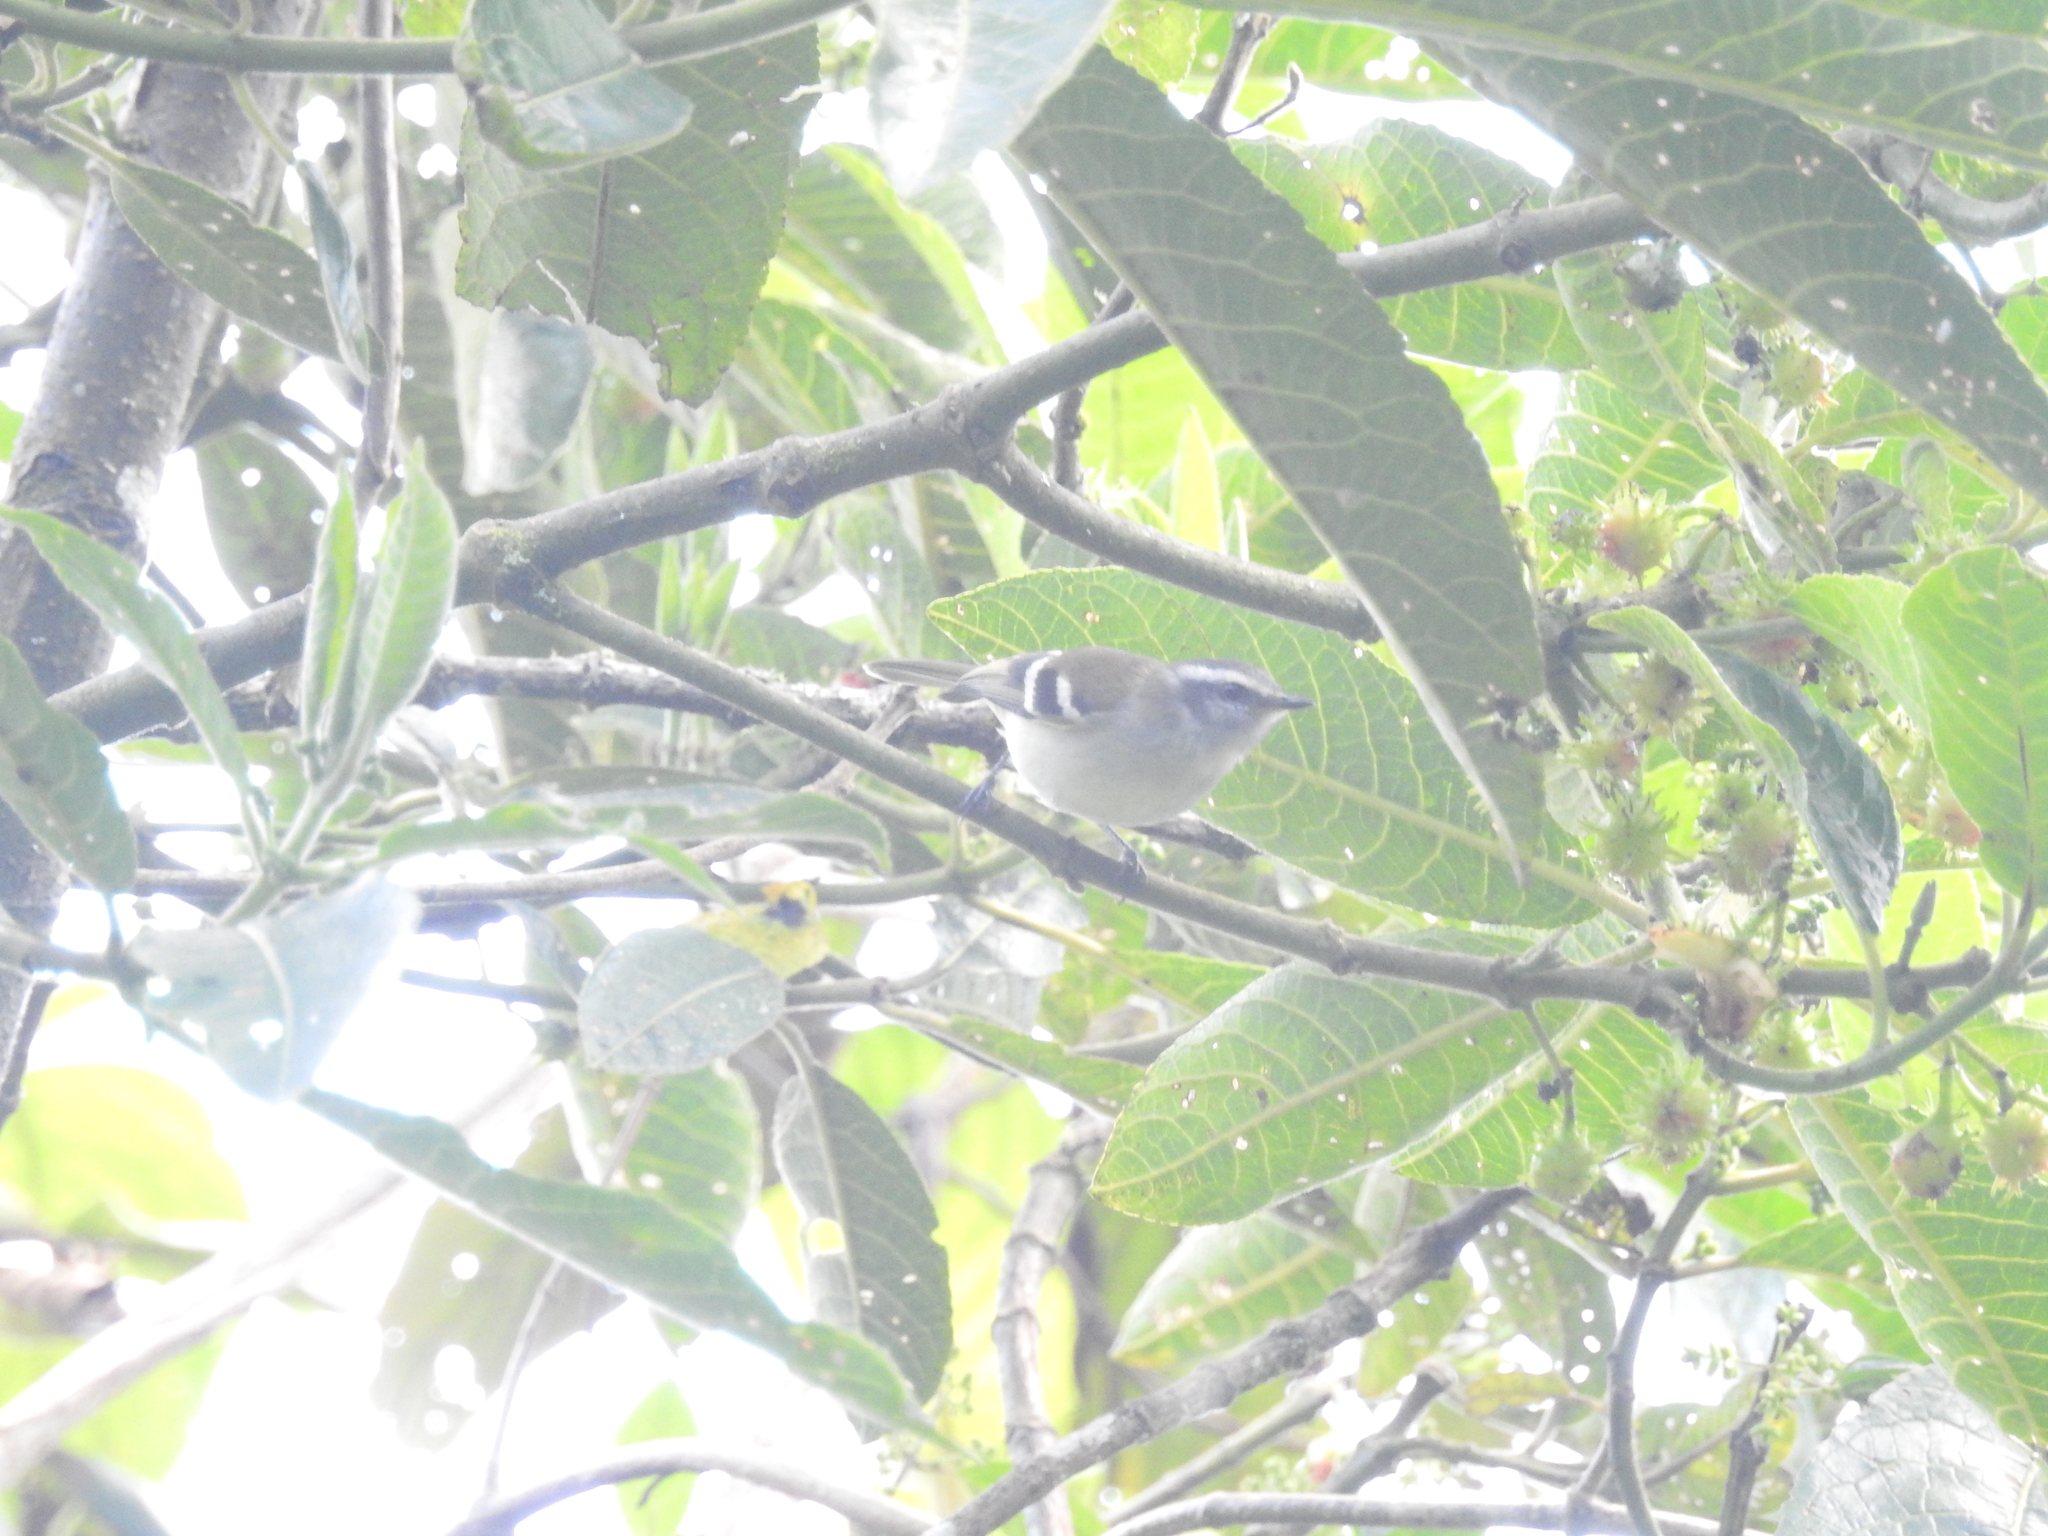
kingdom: Animalia
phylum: Chordata
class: Aves
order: Passeriformes
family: Tyrannidae
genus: Mecocerculus
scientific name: Mecocerculus stictopterus
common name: White-banded tyrannulet
